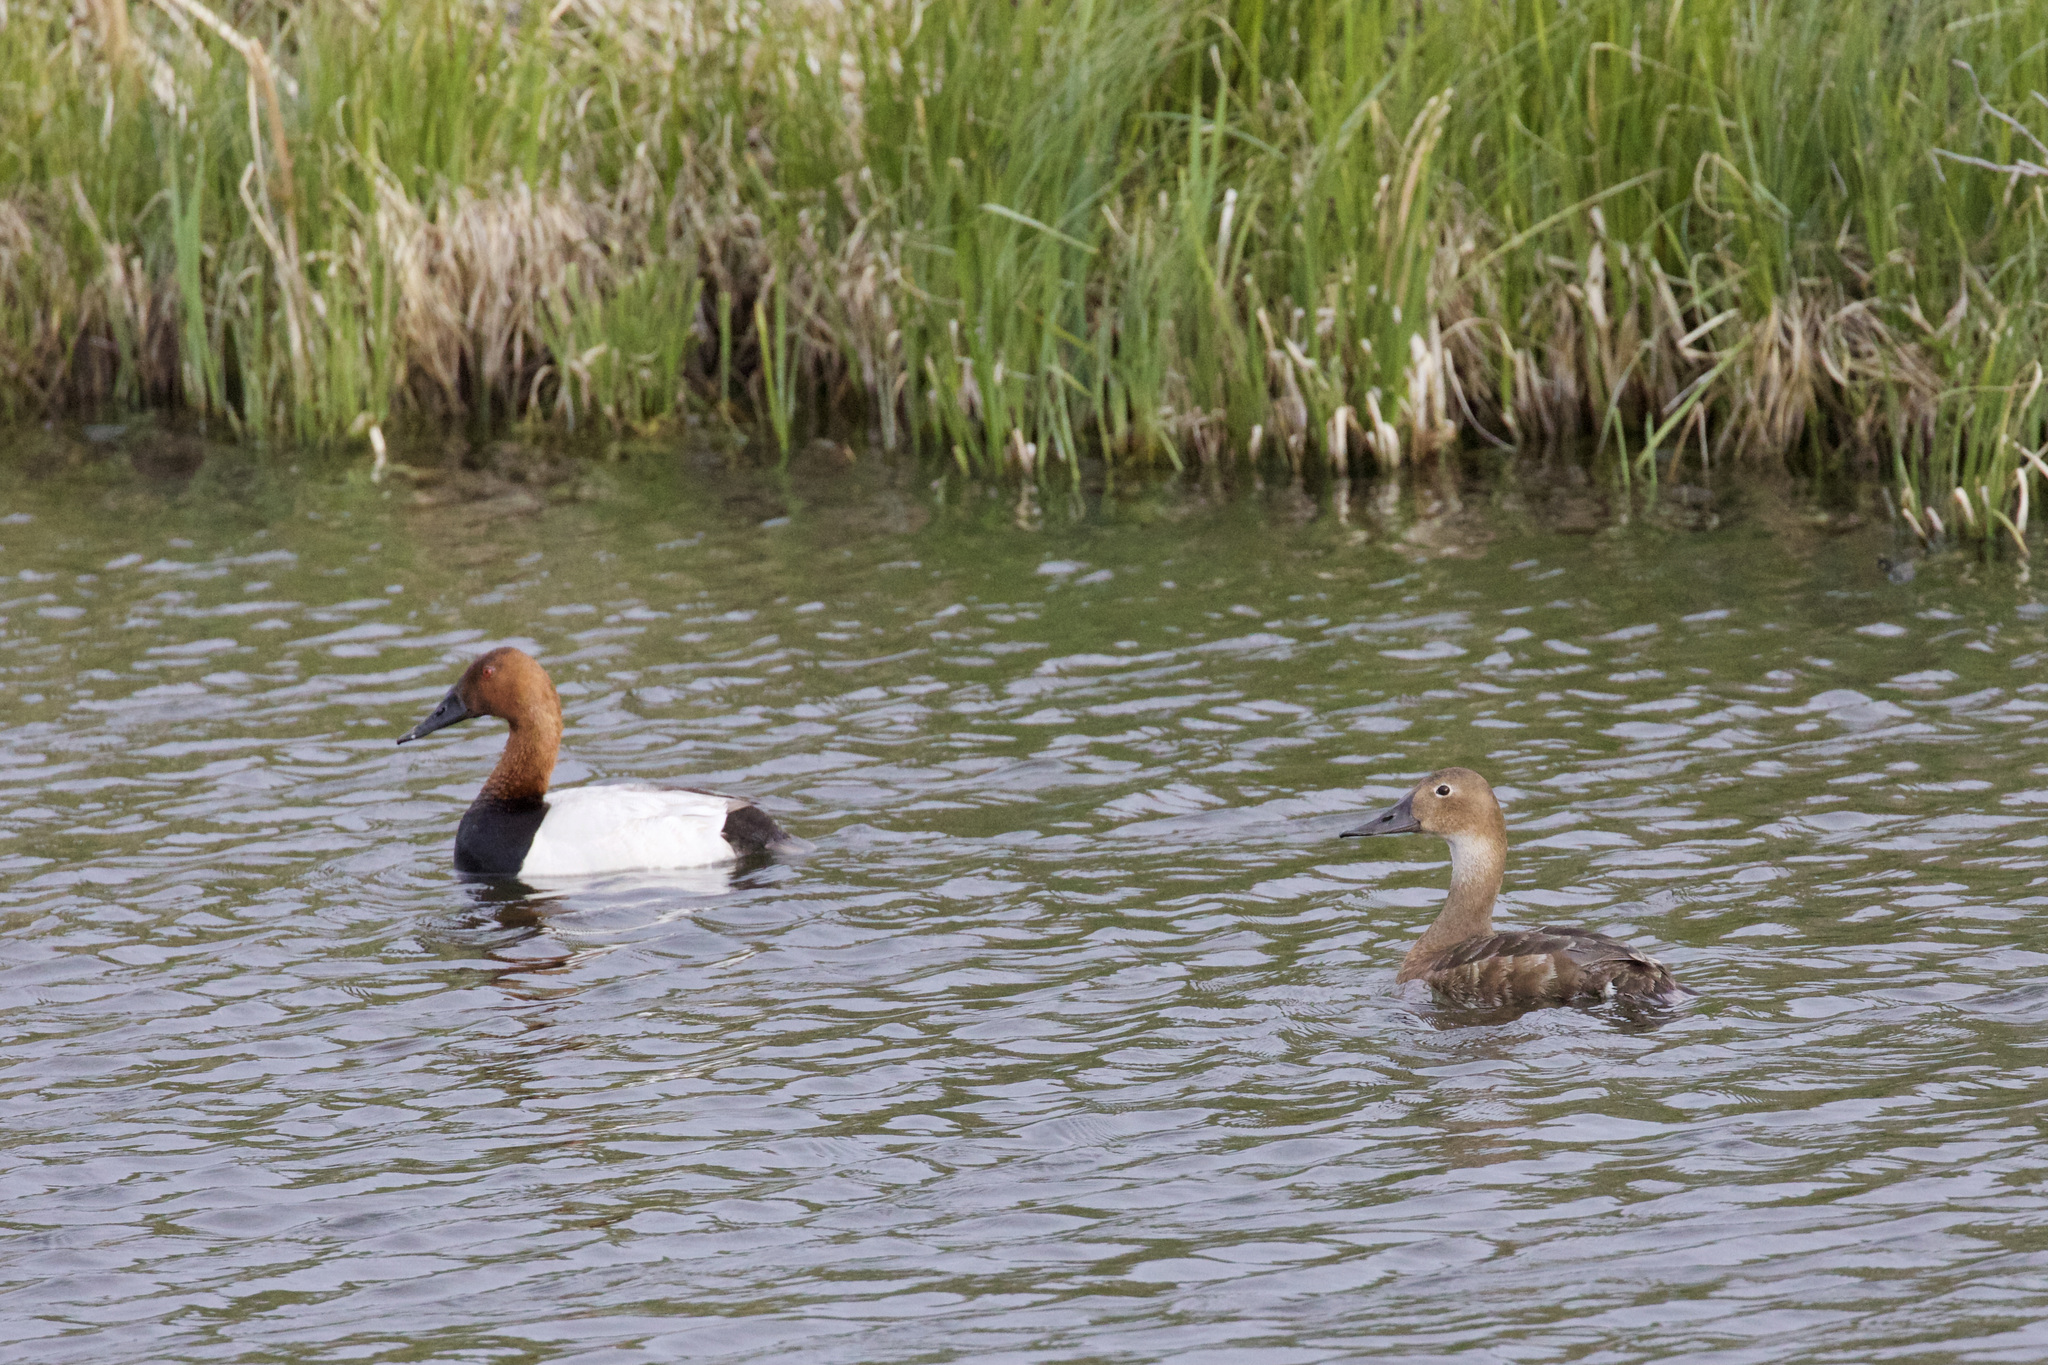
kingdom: Animalia
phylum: Chordata
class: Aves
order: Anseriformes
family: Anatidae
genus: Aythya
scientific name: Aythya valisineria
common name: Canvasback
